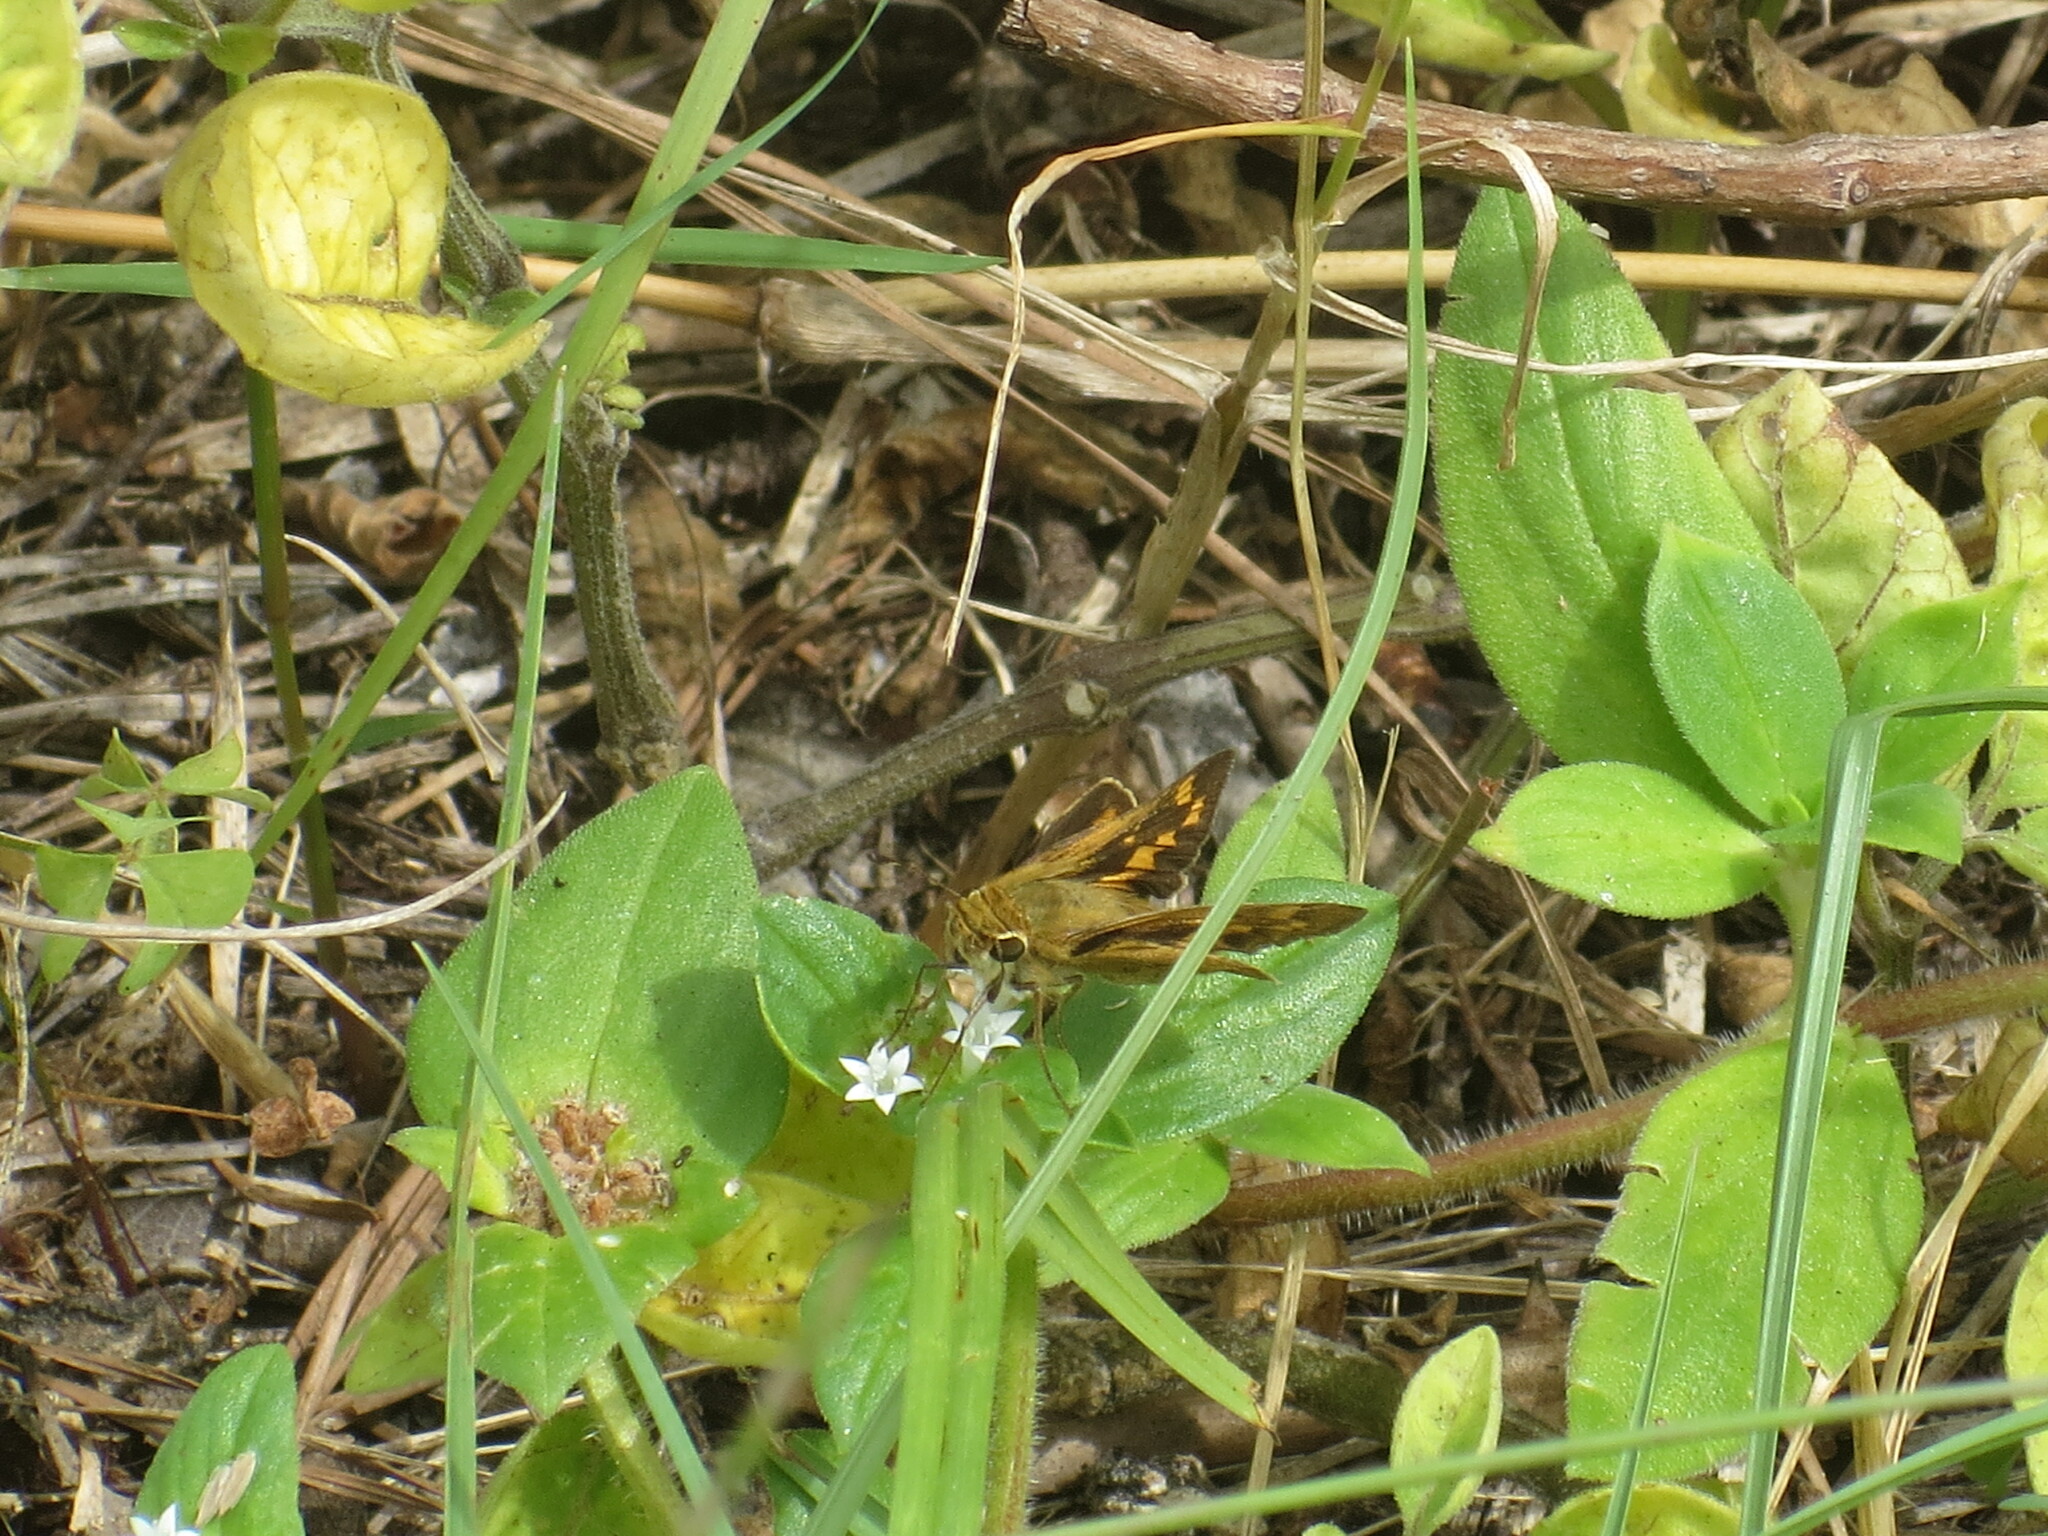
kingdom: Animalia
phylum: Arthropoda
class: Insecta
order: Lepidoptera
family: Hesperiidae
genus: Hylephila
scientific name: Hylephila phyleus
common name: Fiery skipper
